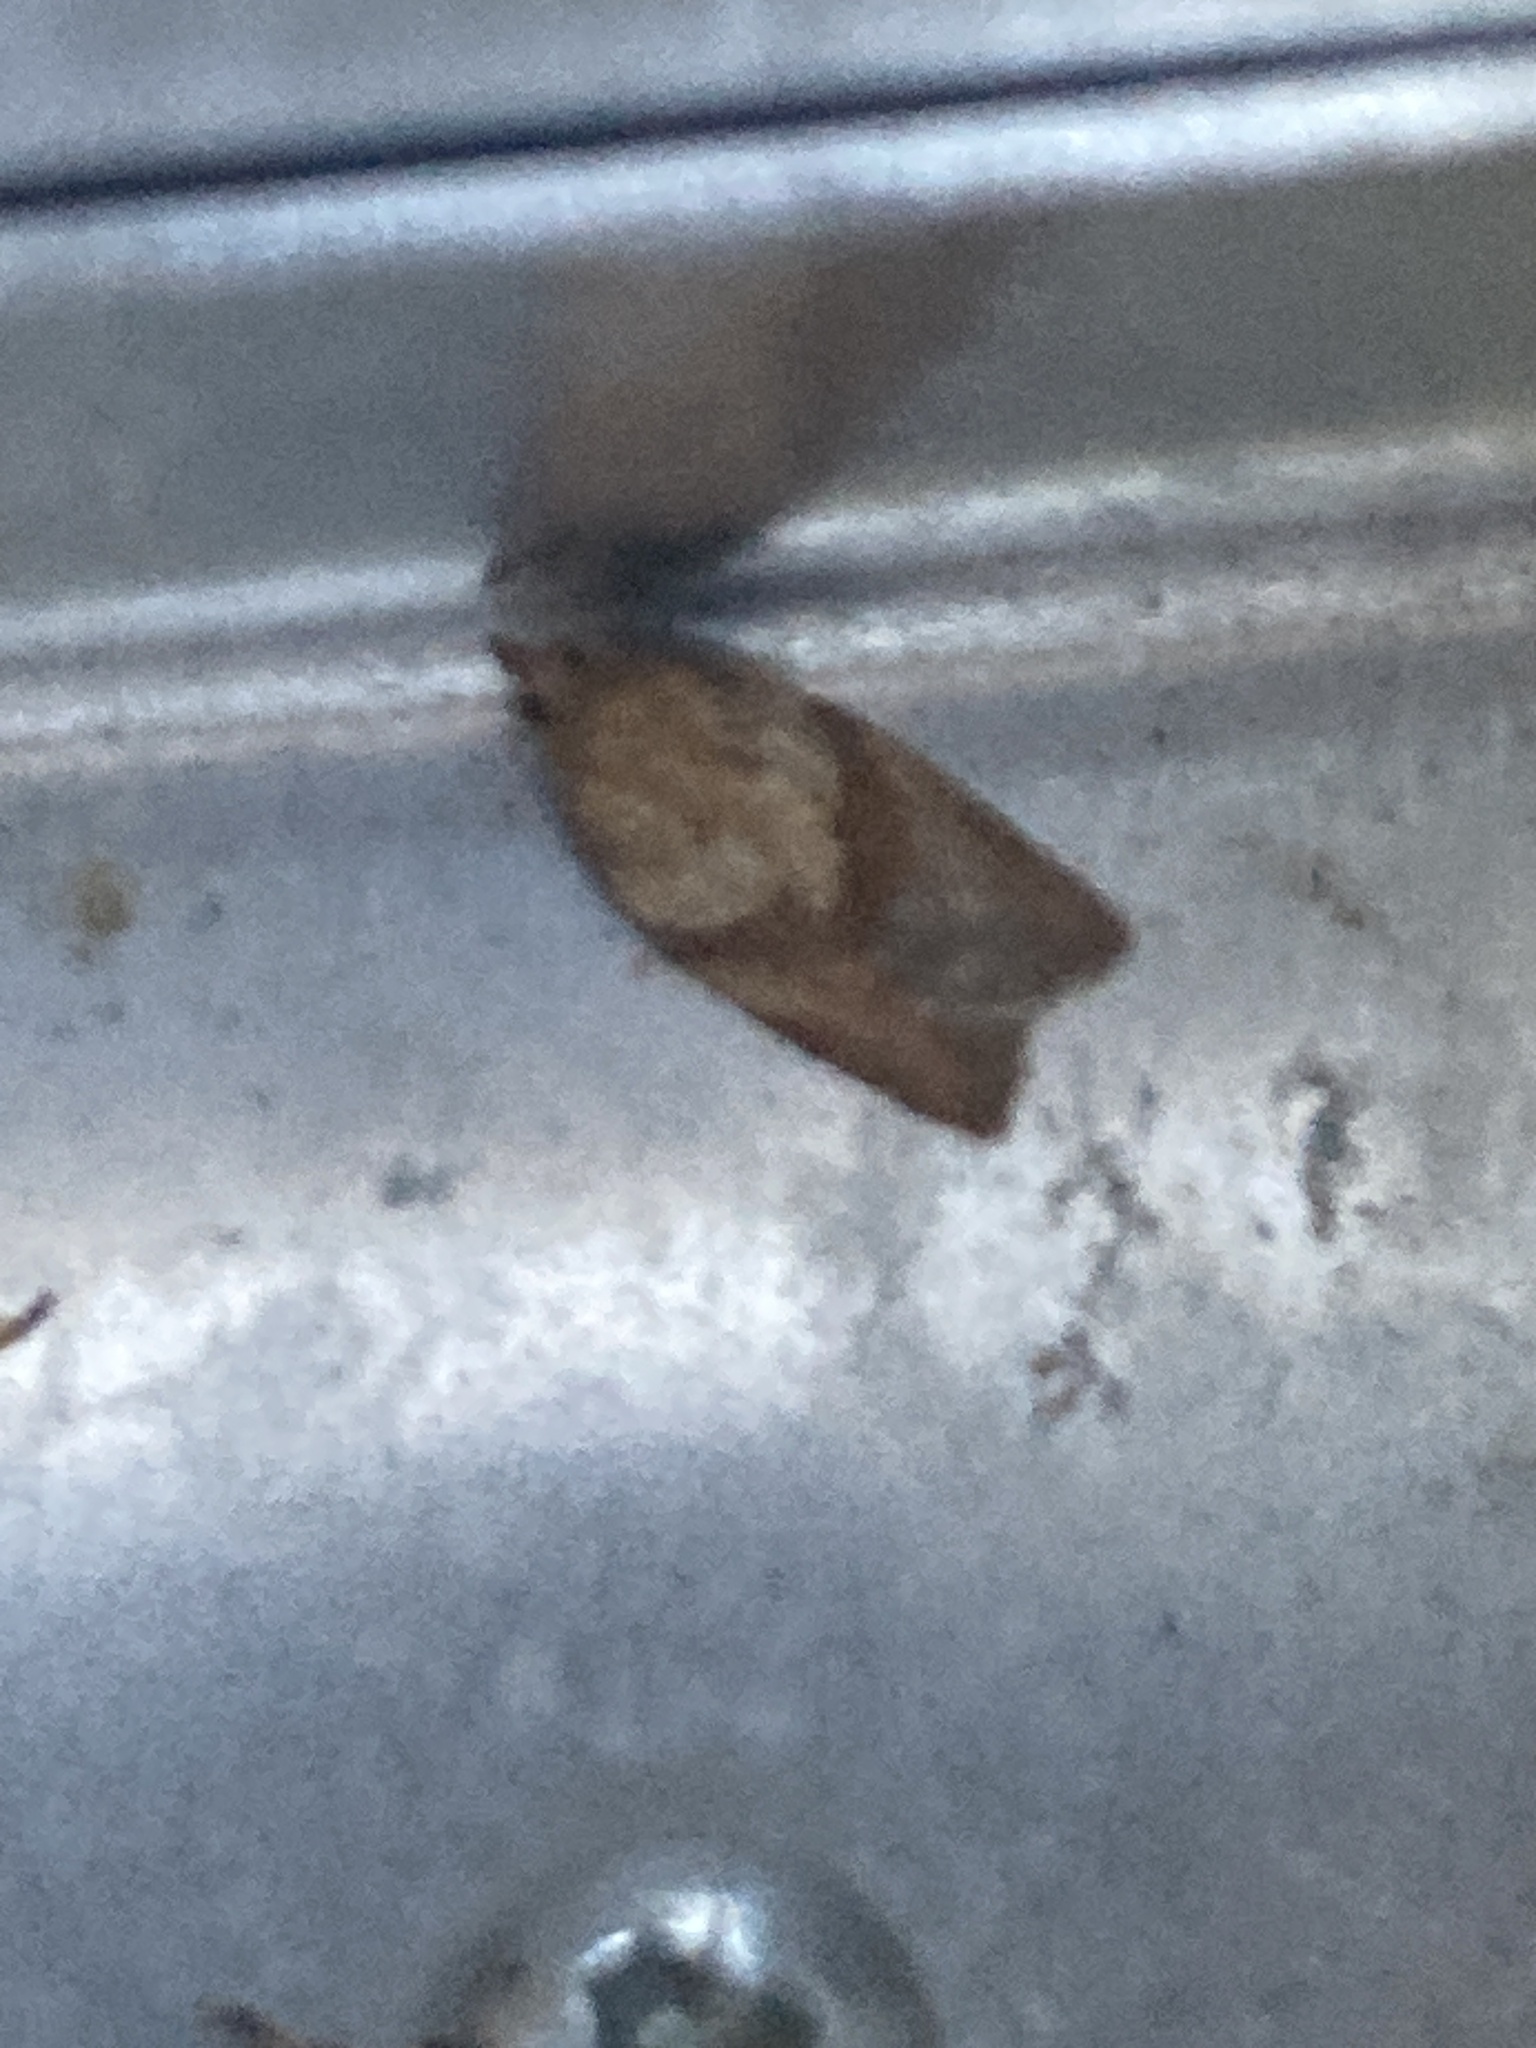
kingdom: Animalia
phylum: Arthropoda
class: Insecta
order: Lepidoptera
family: Tortricidae
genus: Epiphyas
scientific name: Epiphyas postvittana
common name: Light brown apple moth
